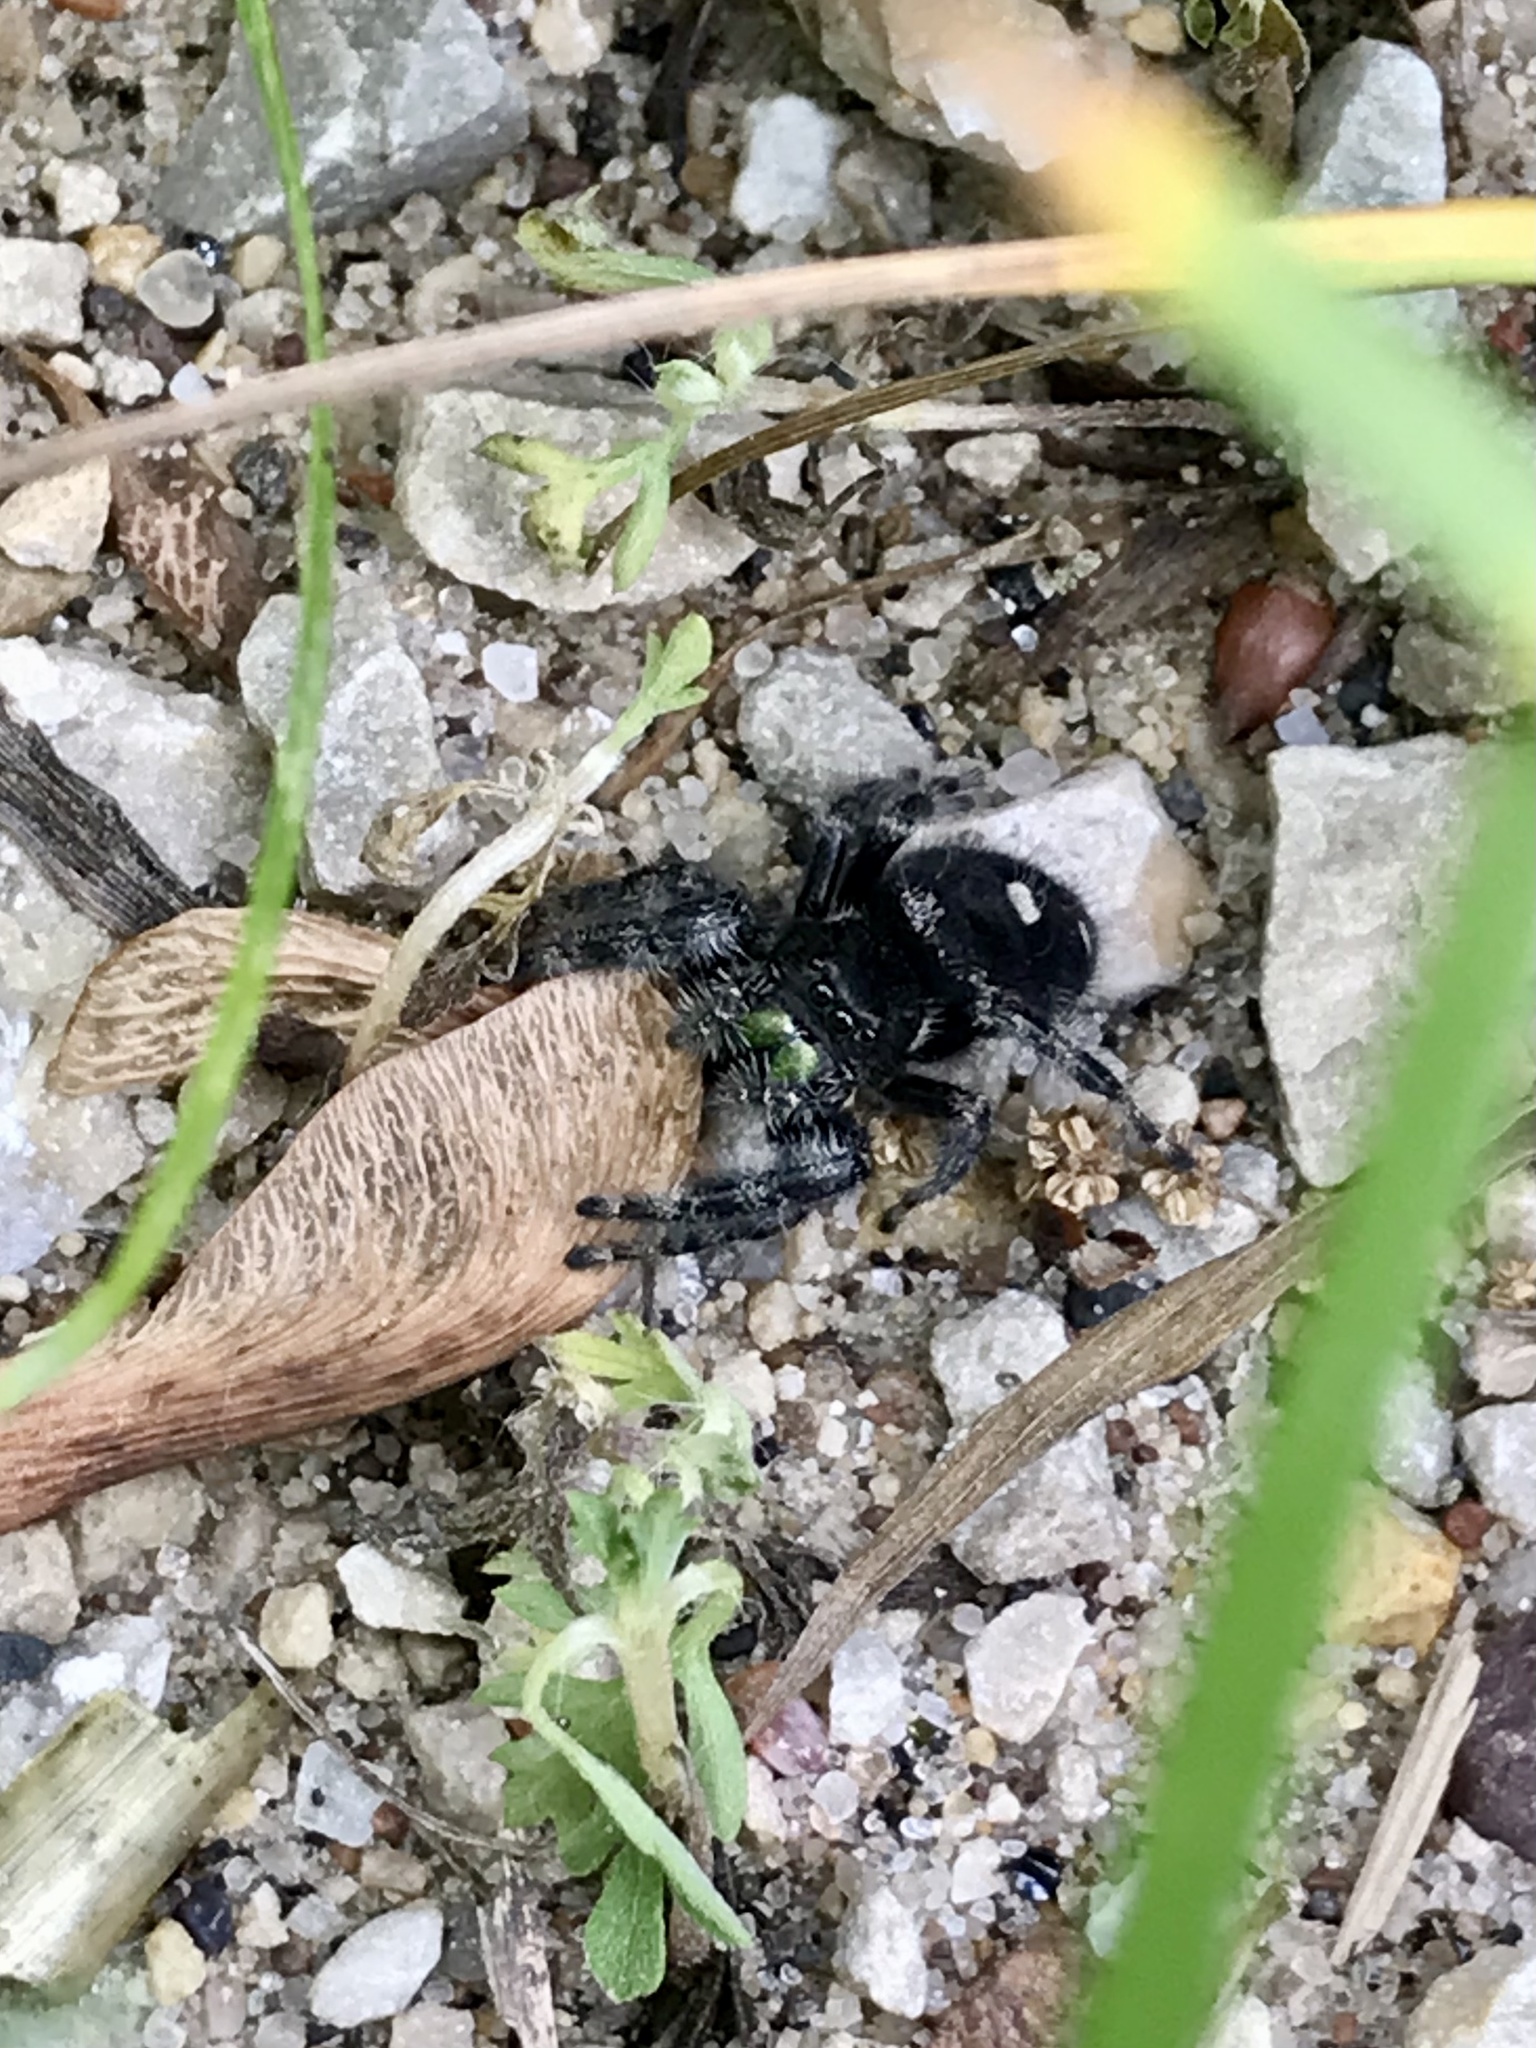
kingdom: Animalia
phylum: Arthropoda
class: Arachnida
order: Araneae
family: Salticidae
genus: Phidippus
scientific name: Phidippus audax
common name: Bold jumper
